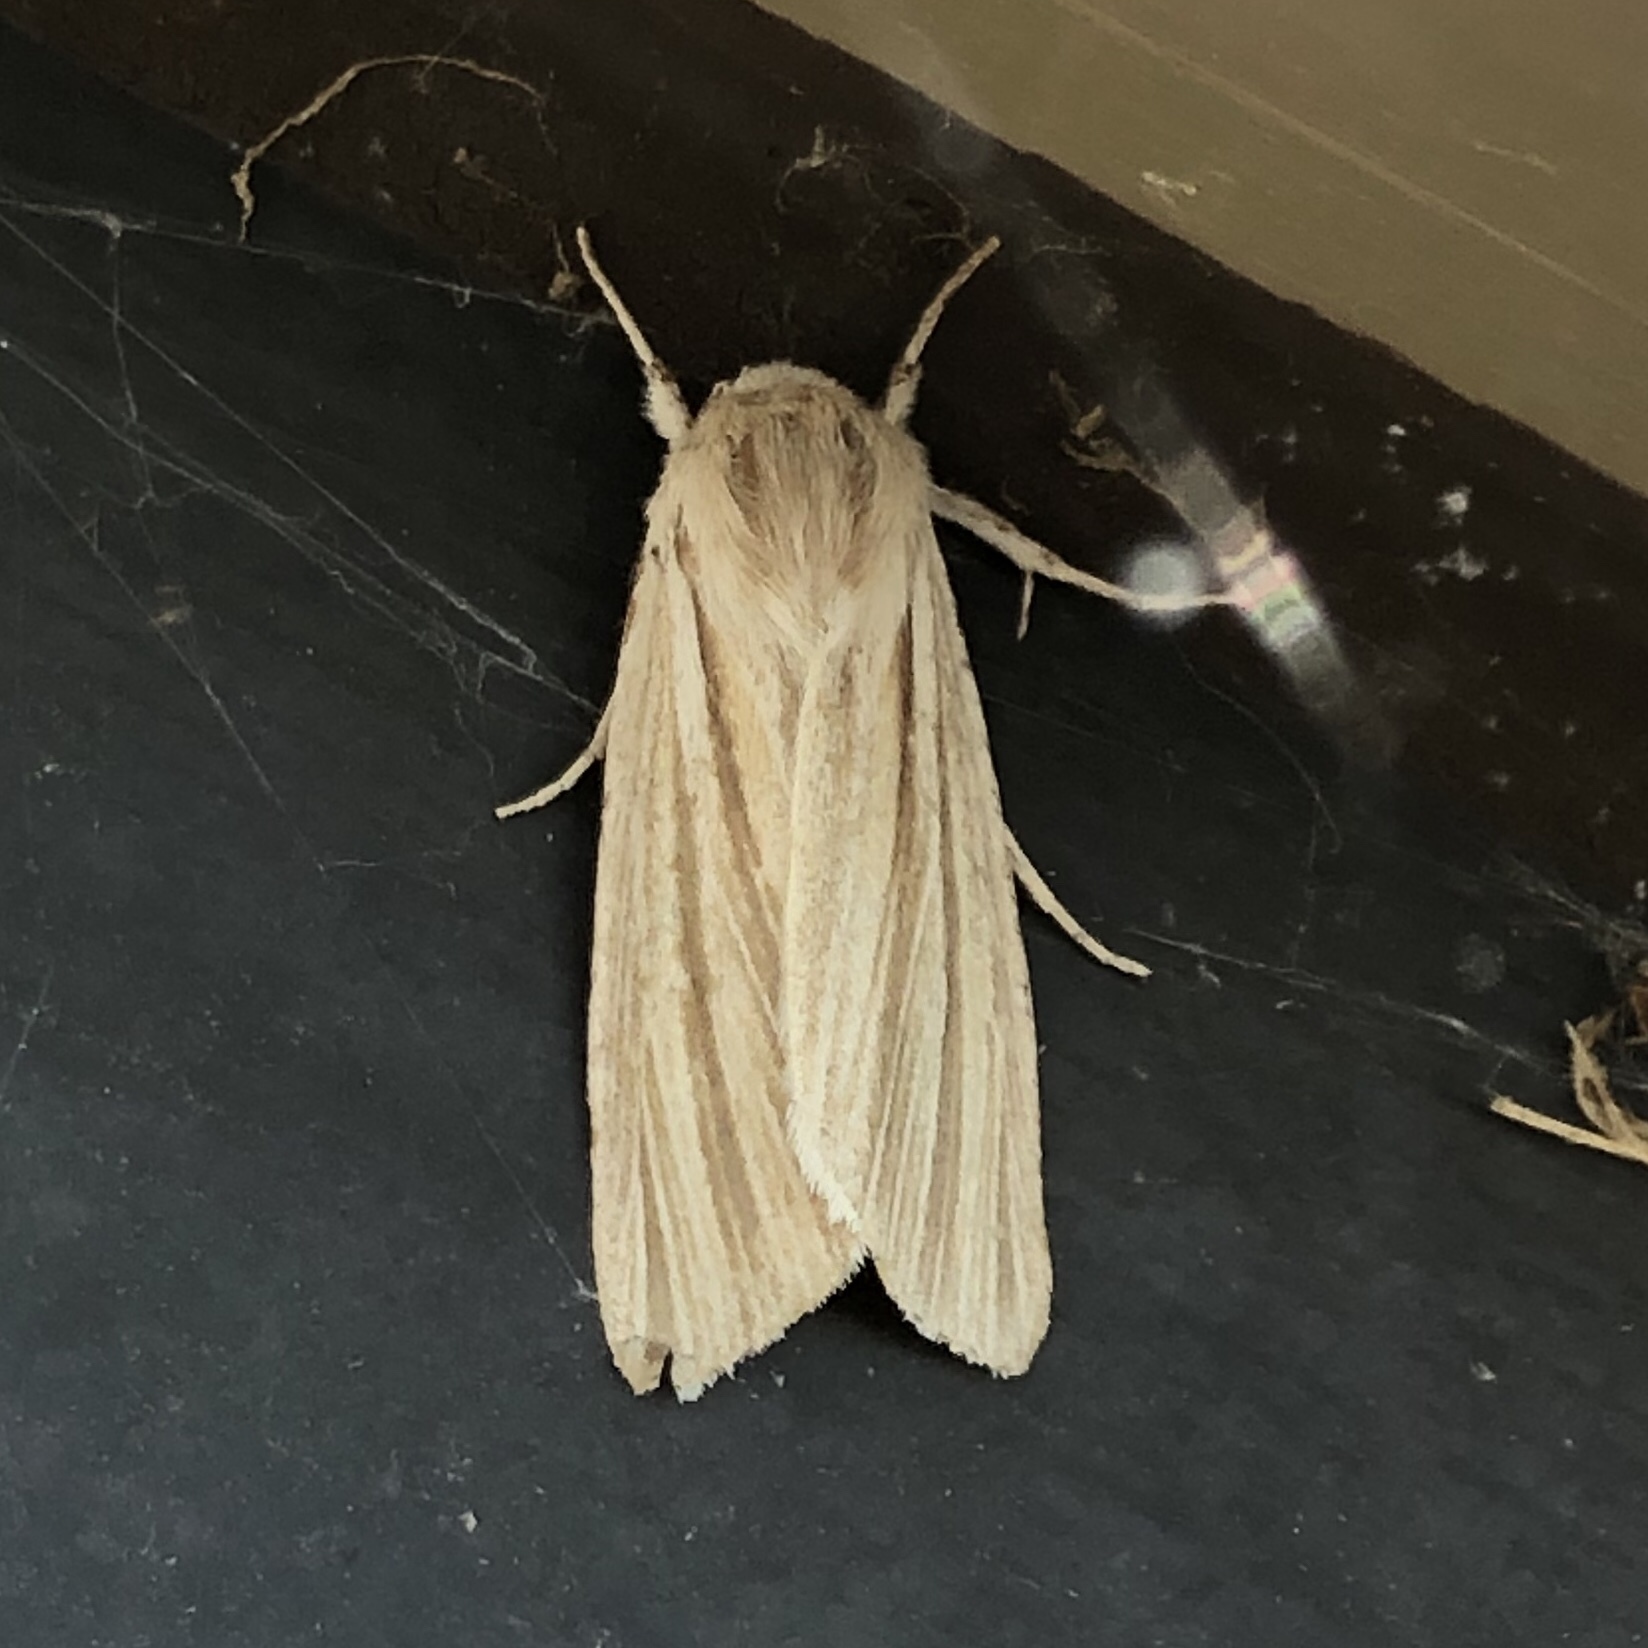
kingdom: Animalia
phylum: Arthropoda
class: Insecta
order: Lepidoptera
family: Noctuidae
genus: Acronicta
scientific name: Acronicta insularis
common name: Henry's marsh moth
